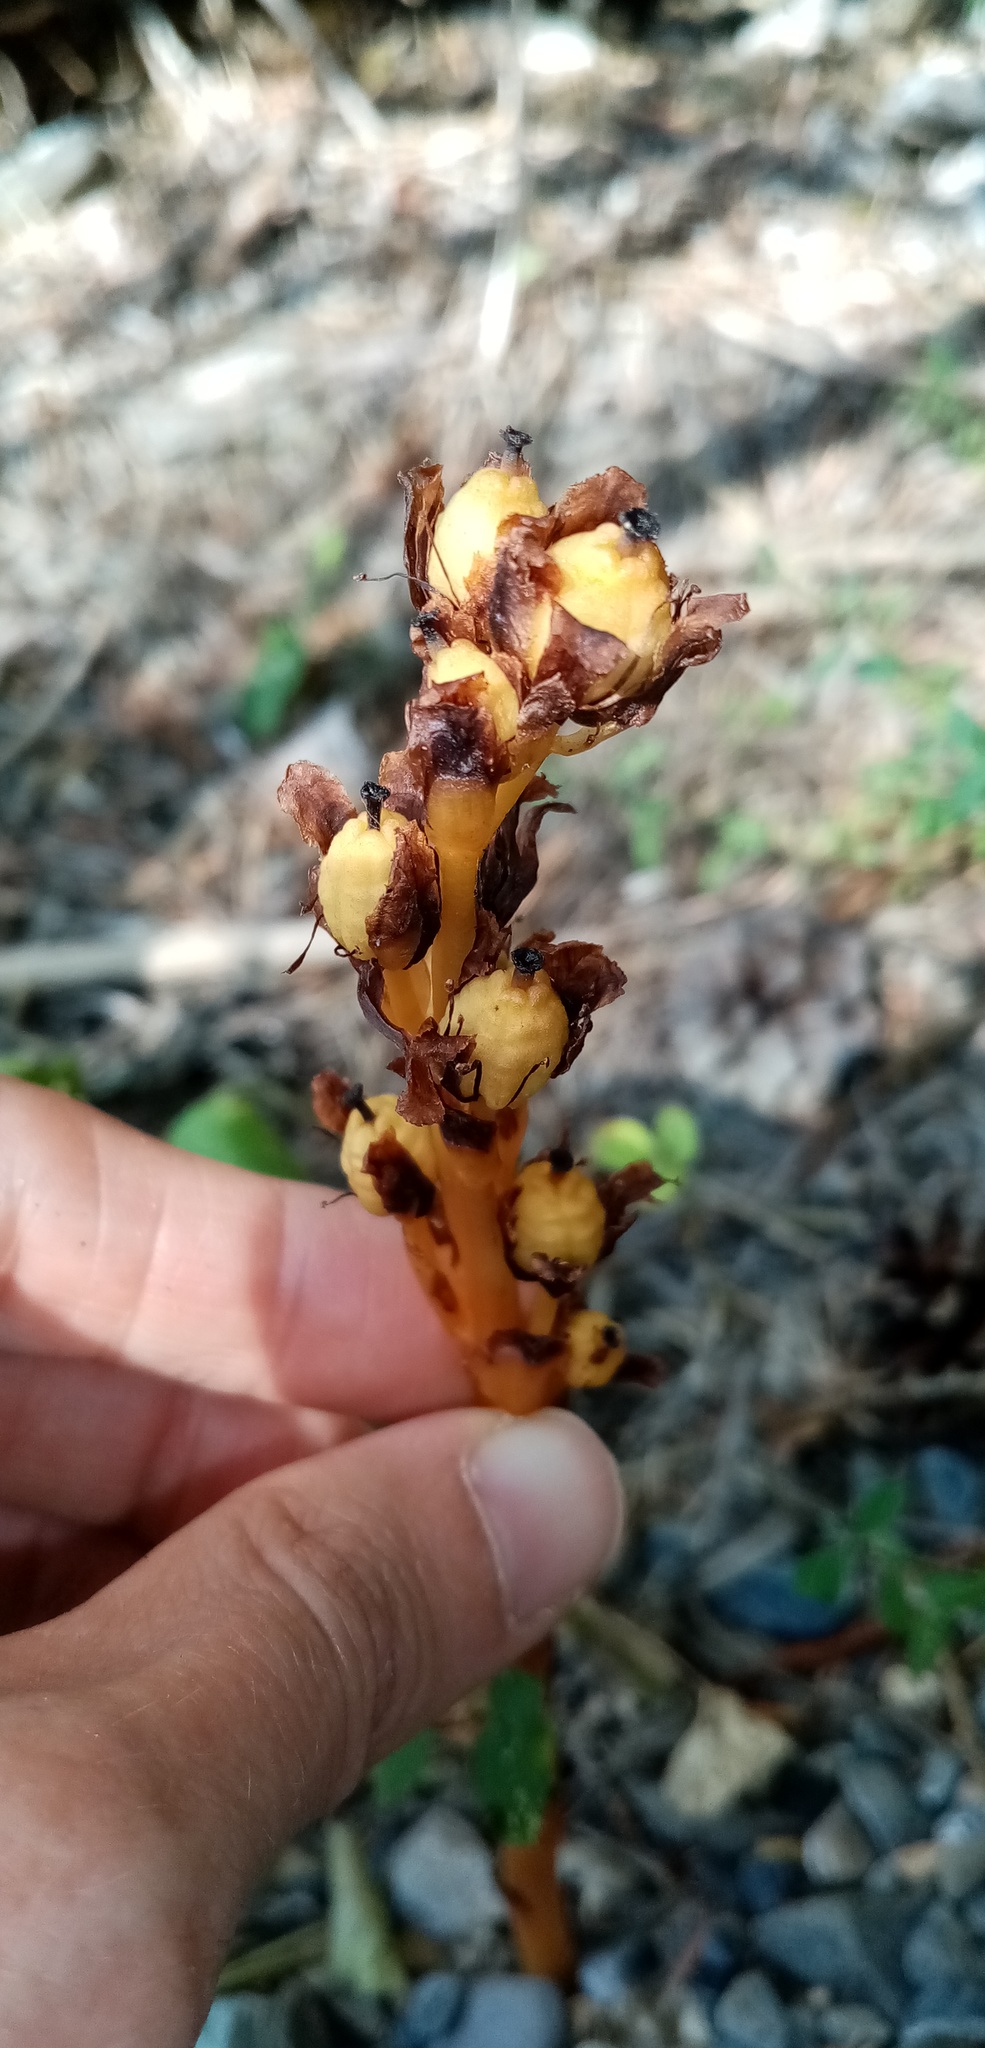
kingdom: Plantae
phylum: Tracheophyta
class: Magnoliopsida
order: Ericales
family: Ericaceae
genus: Hypopitys
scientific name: Hypopitys monotropa
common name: Yellow bird's-nest
